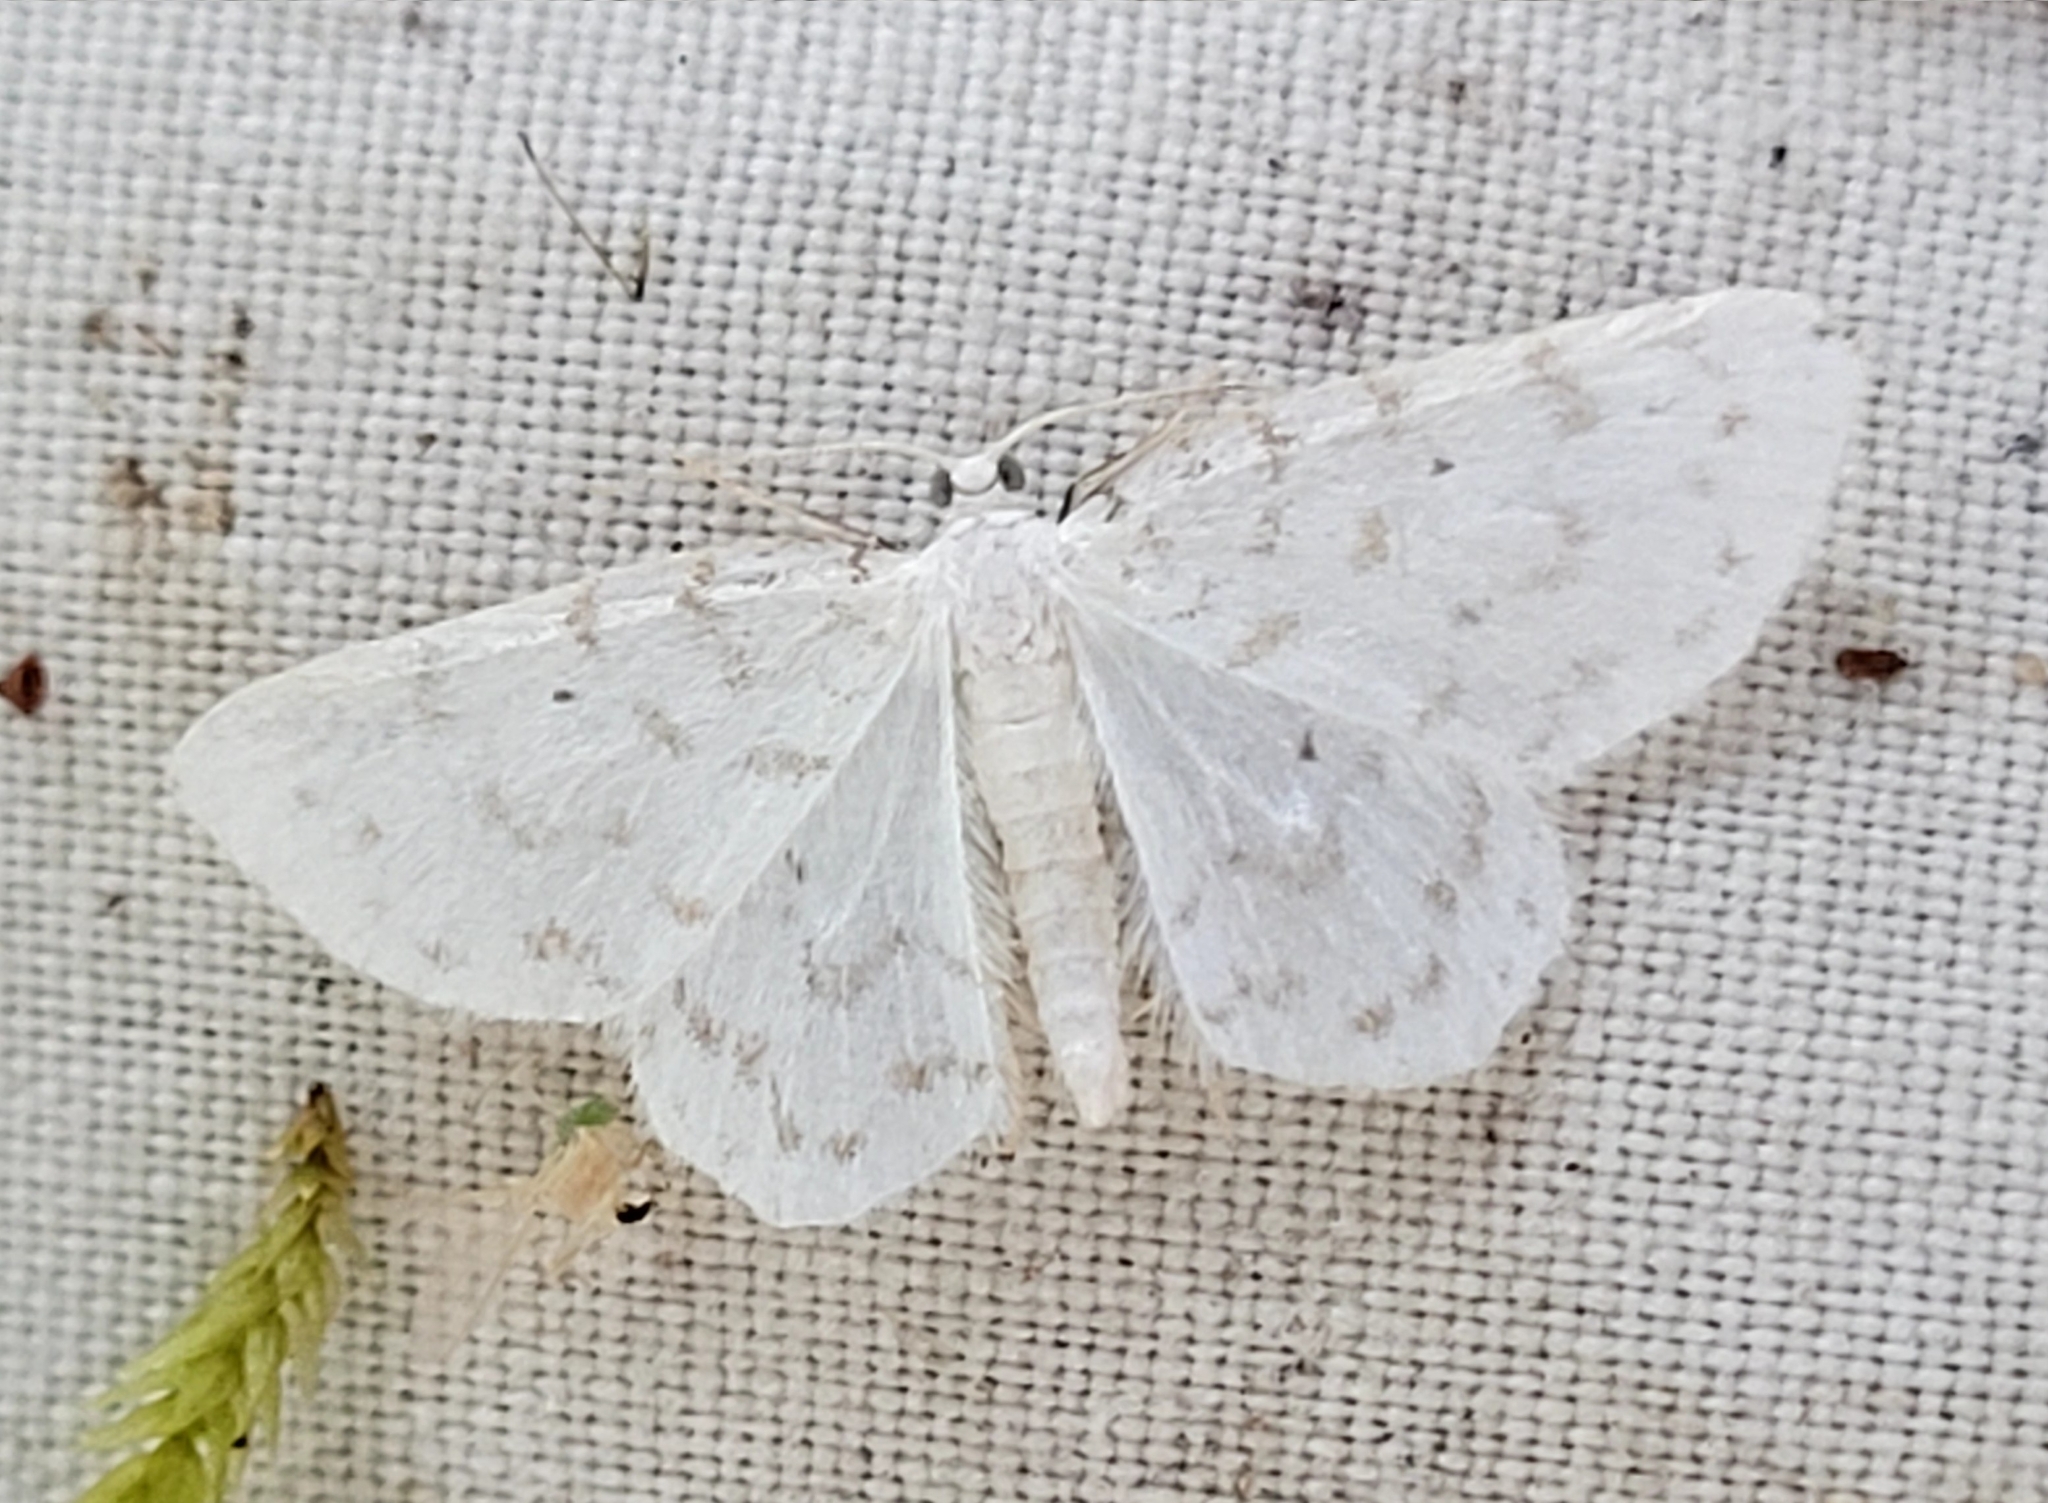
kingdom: Animalia
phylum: Arthropoda
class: Insecta
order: Lepidoptera
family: Geometridae
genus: Hydrelia
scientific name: Hydrelia albifera
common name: Fragile white carpet
